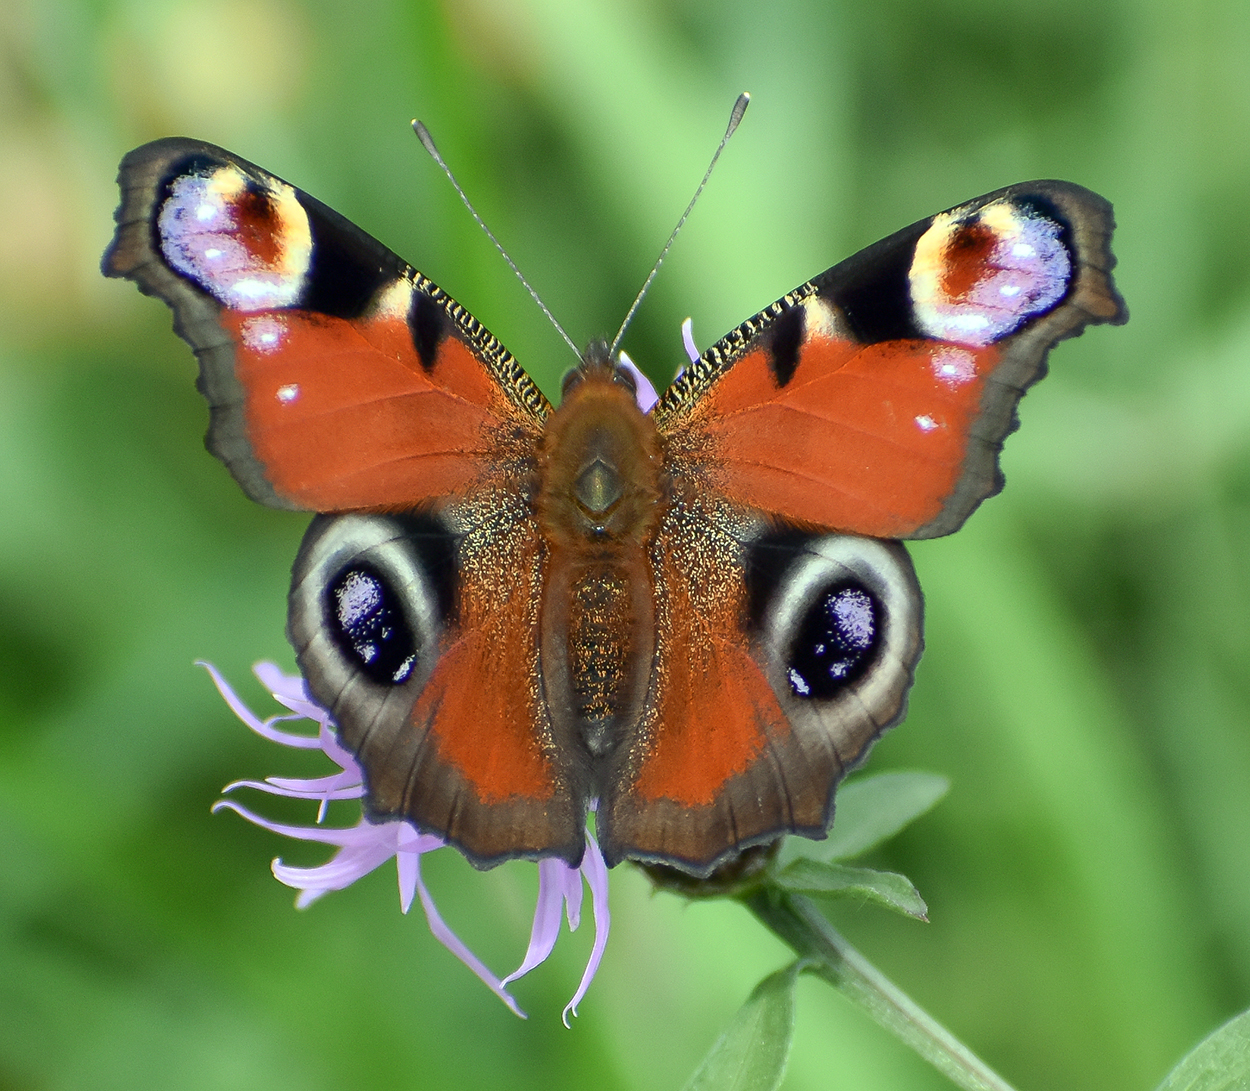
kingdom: Animalia
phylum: Arthropoda
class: Insecta
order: Lepidoptera
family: Nymphalidae
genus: Aglais
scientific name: Aglais io
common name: Peacock
